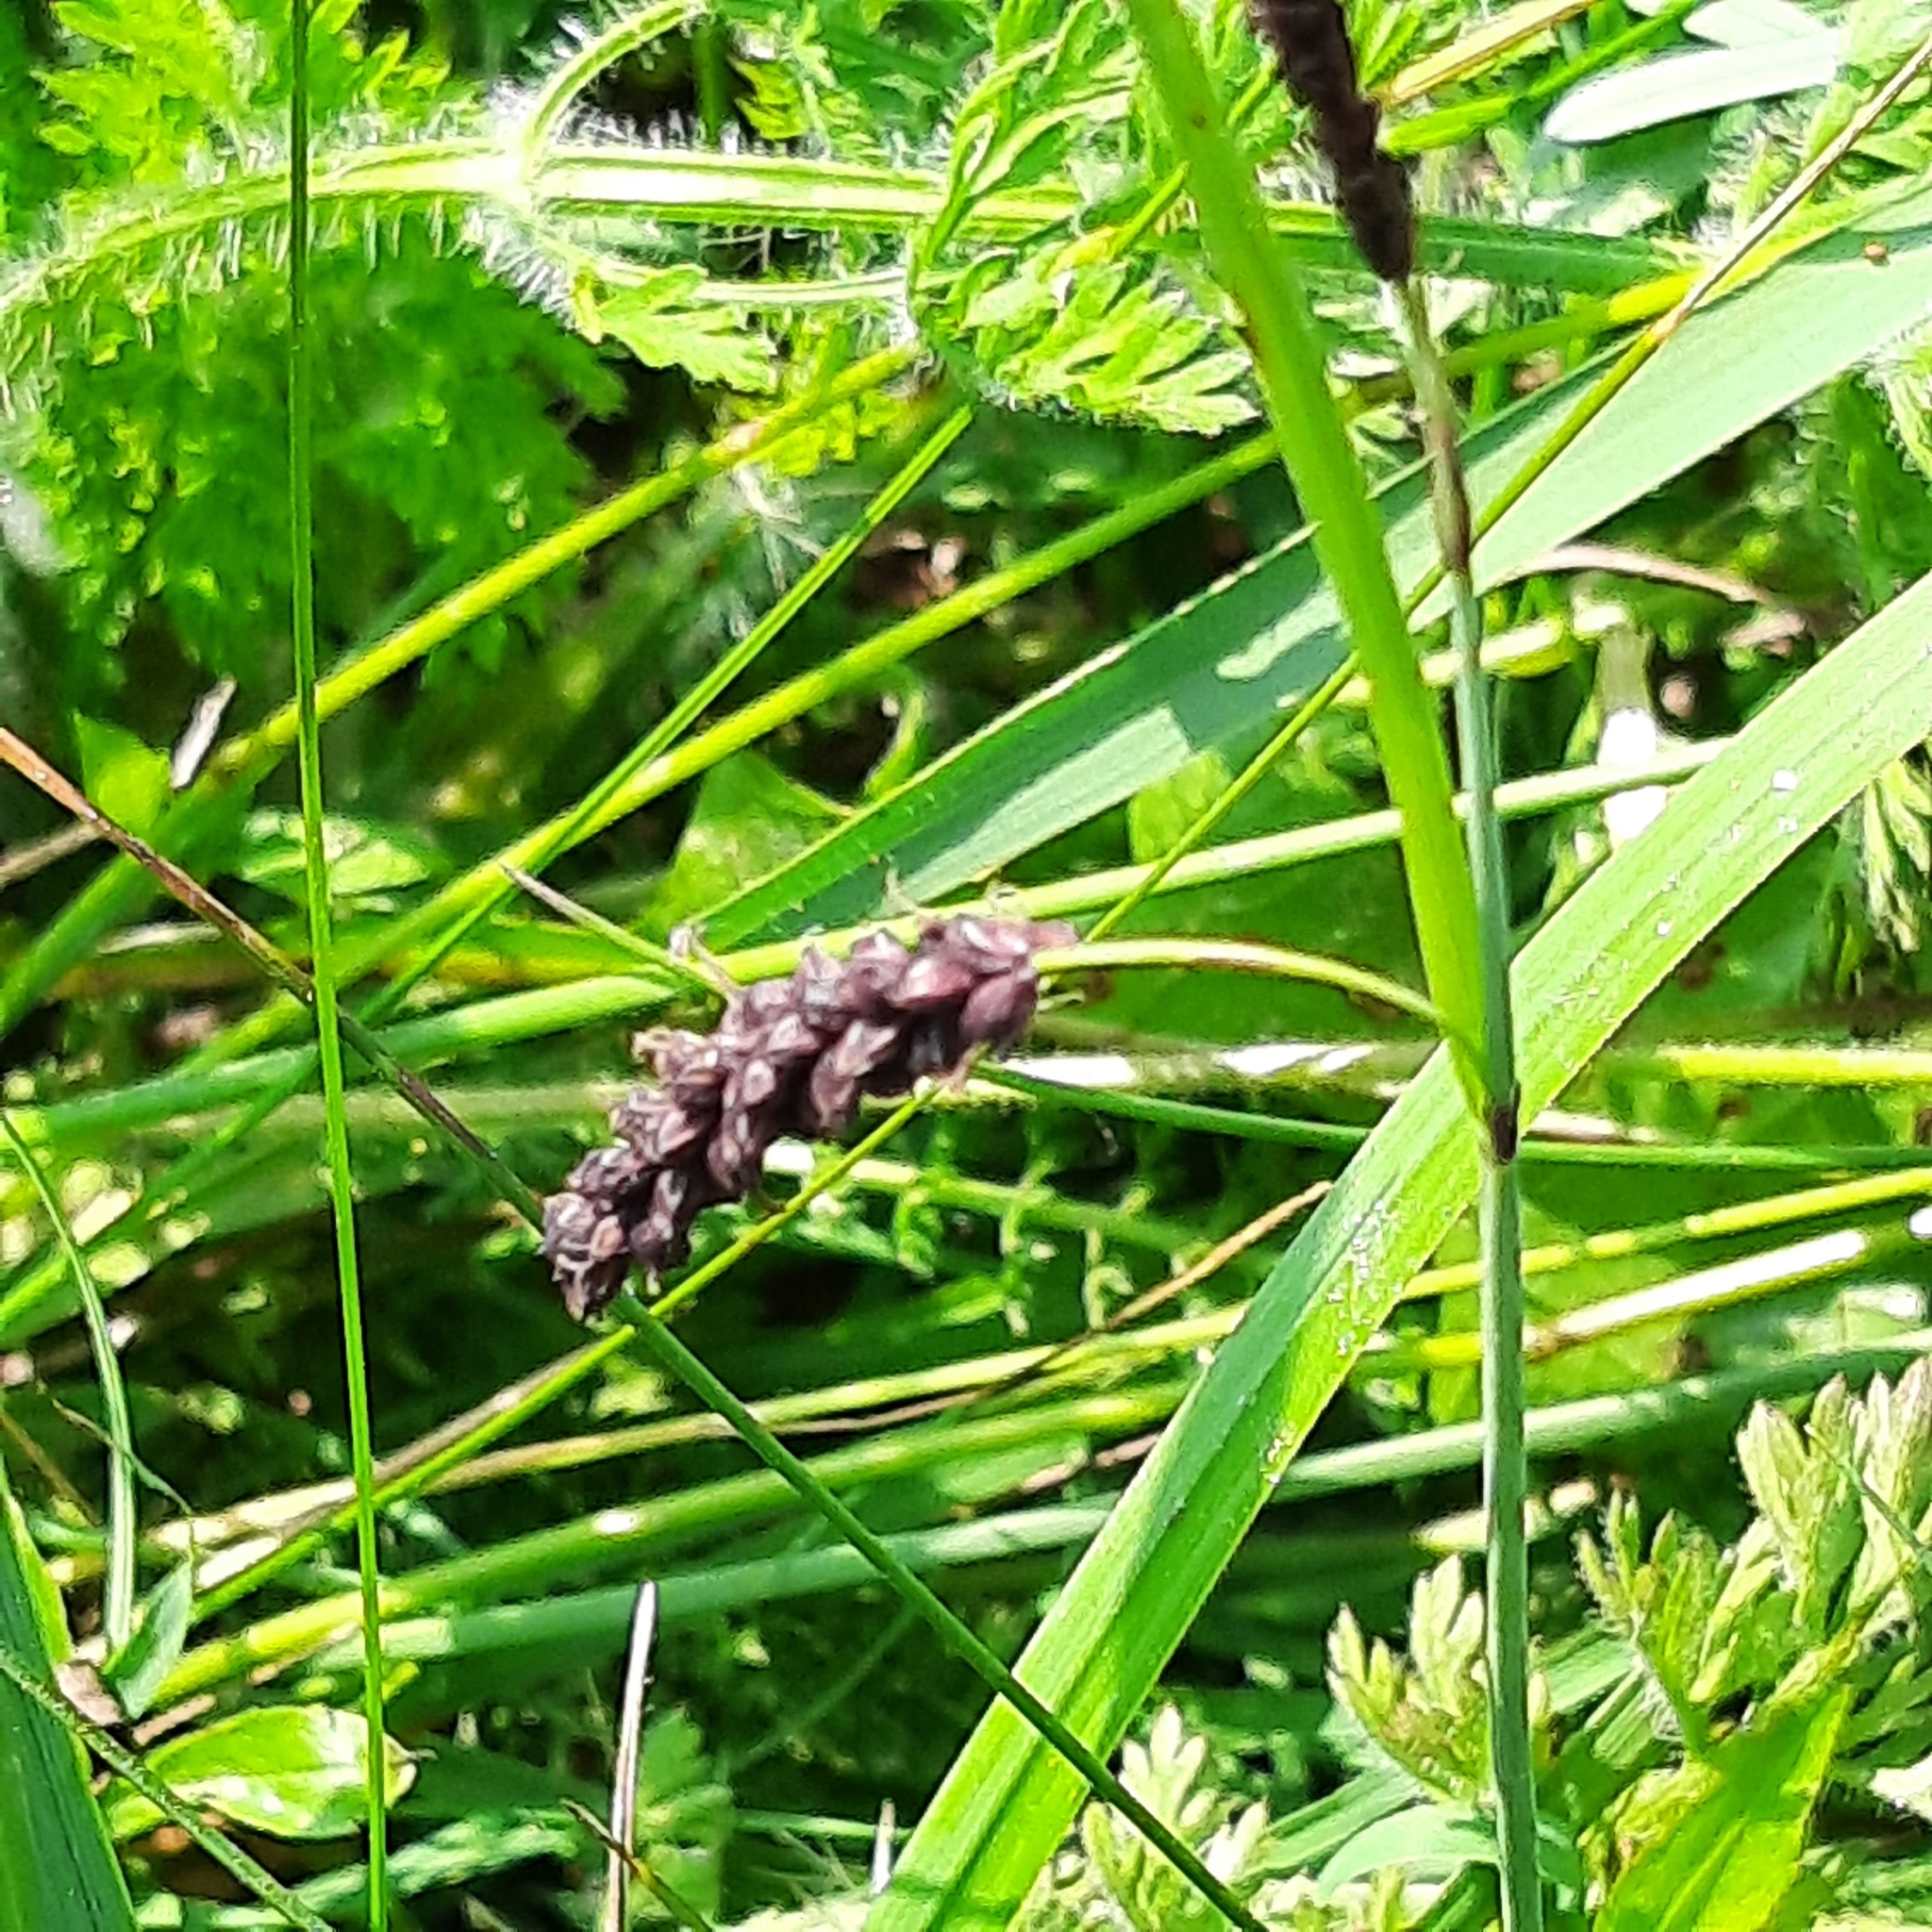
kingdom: Plantae
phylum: Tracheophyta
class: Liliopsida
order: Poales
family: Cyperaceae
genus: Carex
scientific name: Carex flacca
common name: Glaucous sedge
